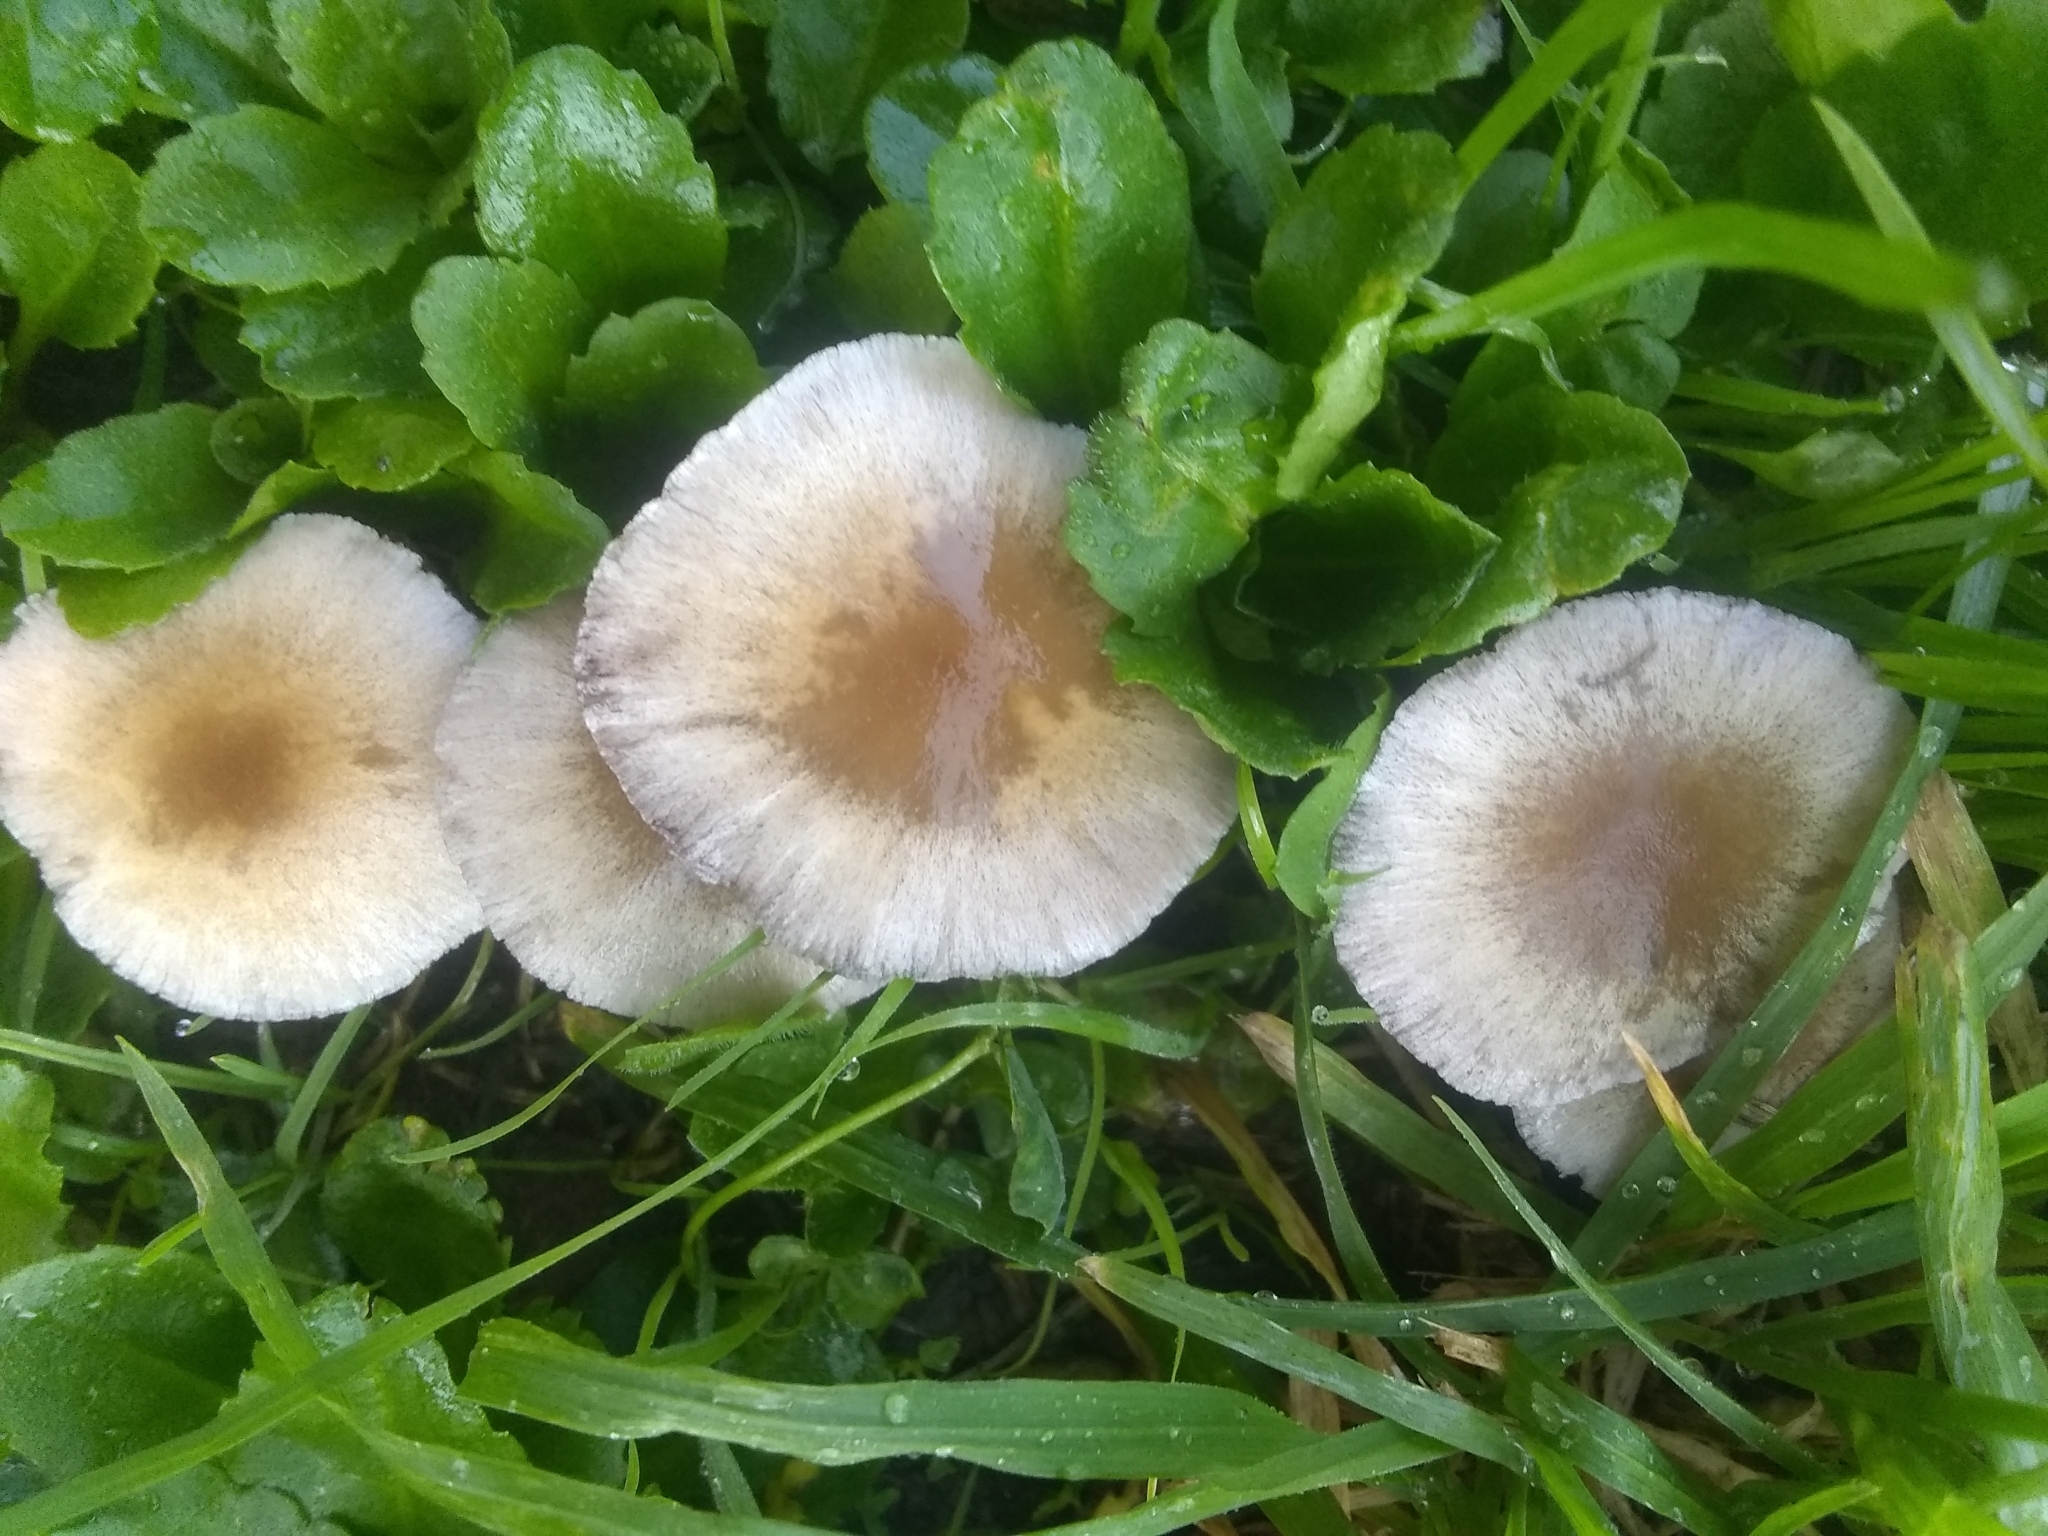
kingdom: Fungi
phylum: Basidiomycota
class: Agaricomycetes
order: Agaricales
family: Psathyrellaceae
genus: Candolleomyces
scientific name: Candolleomyces candolleanus
